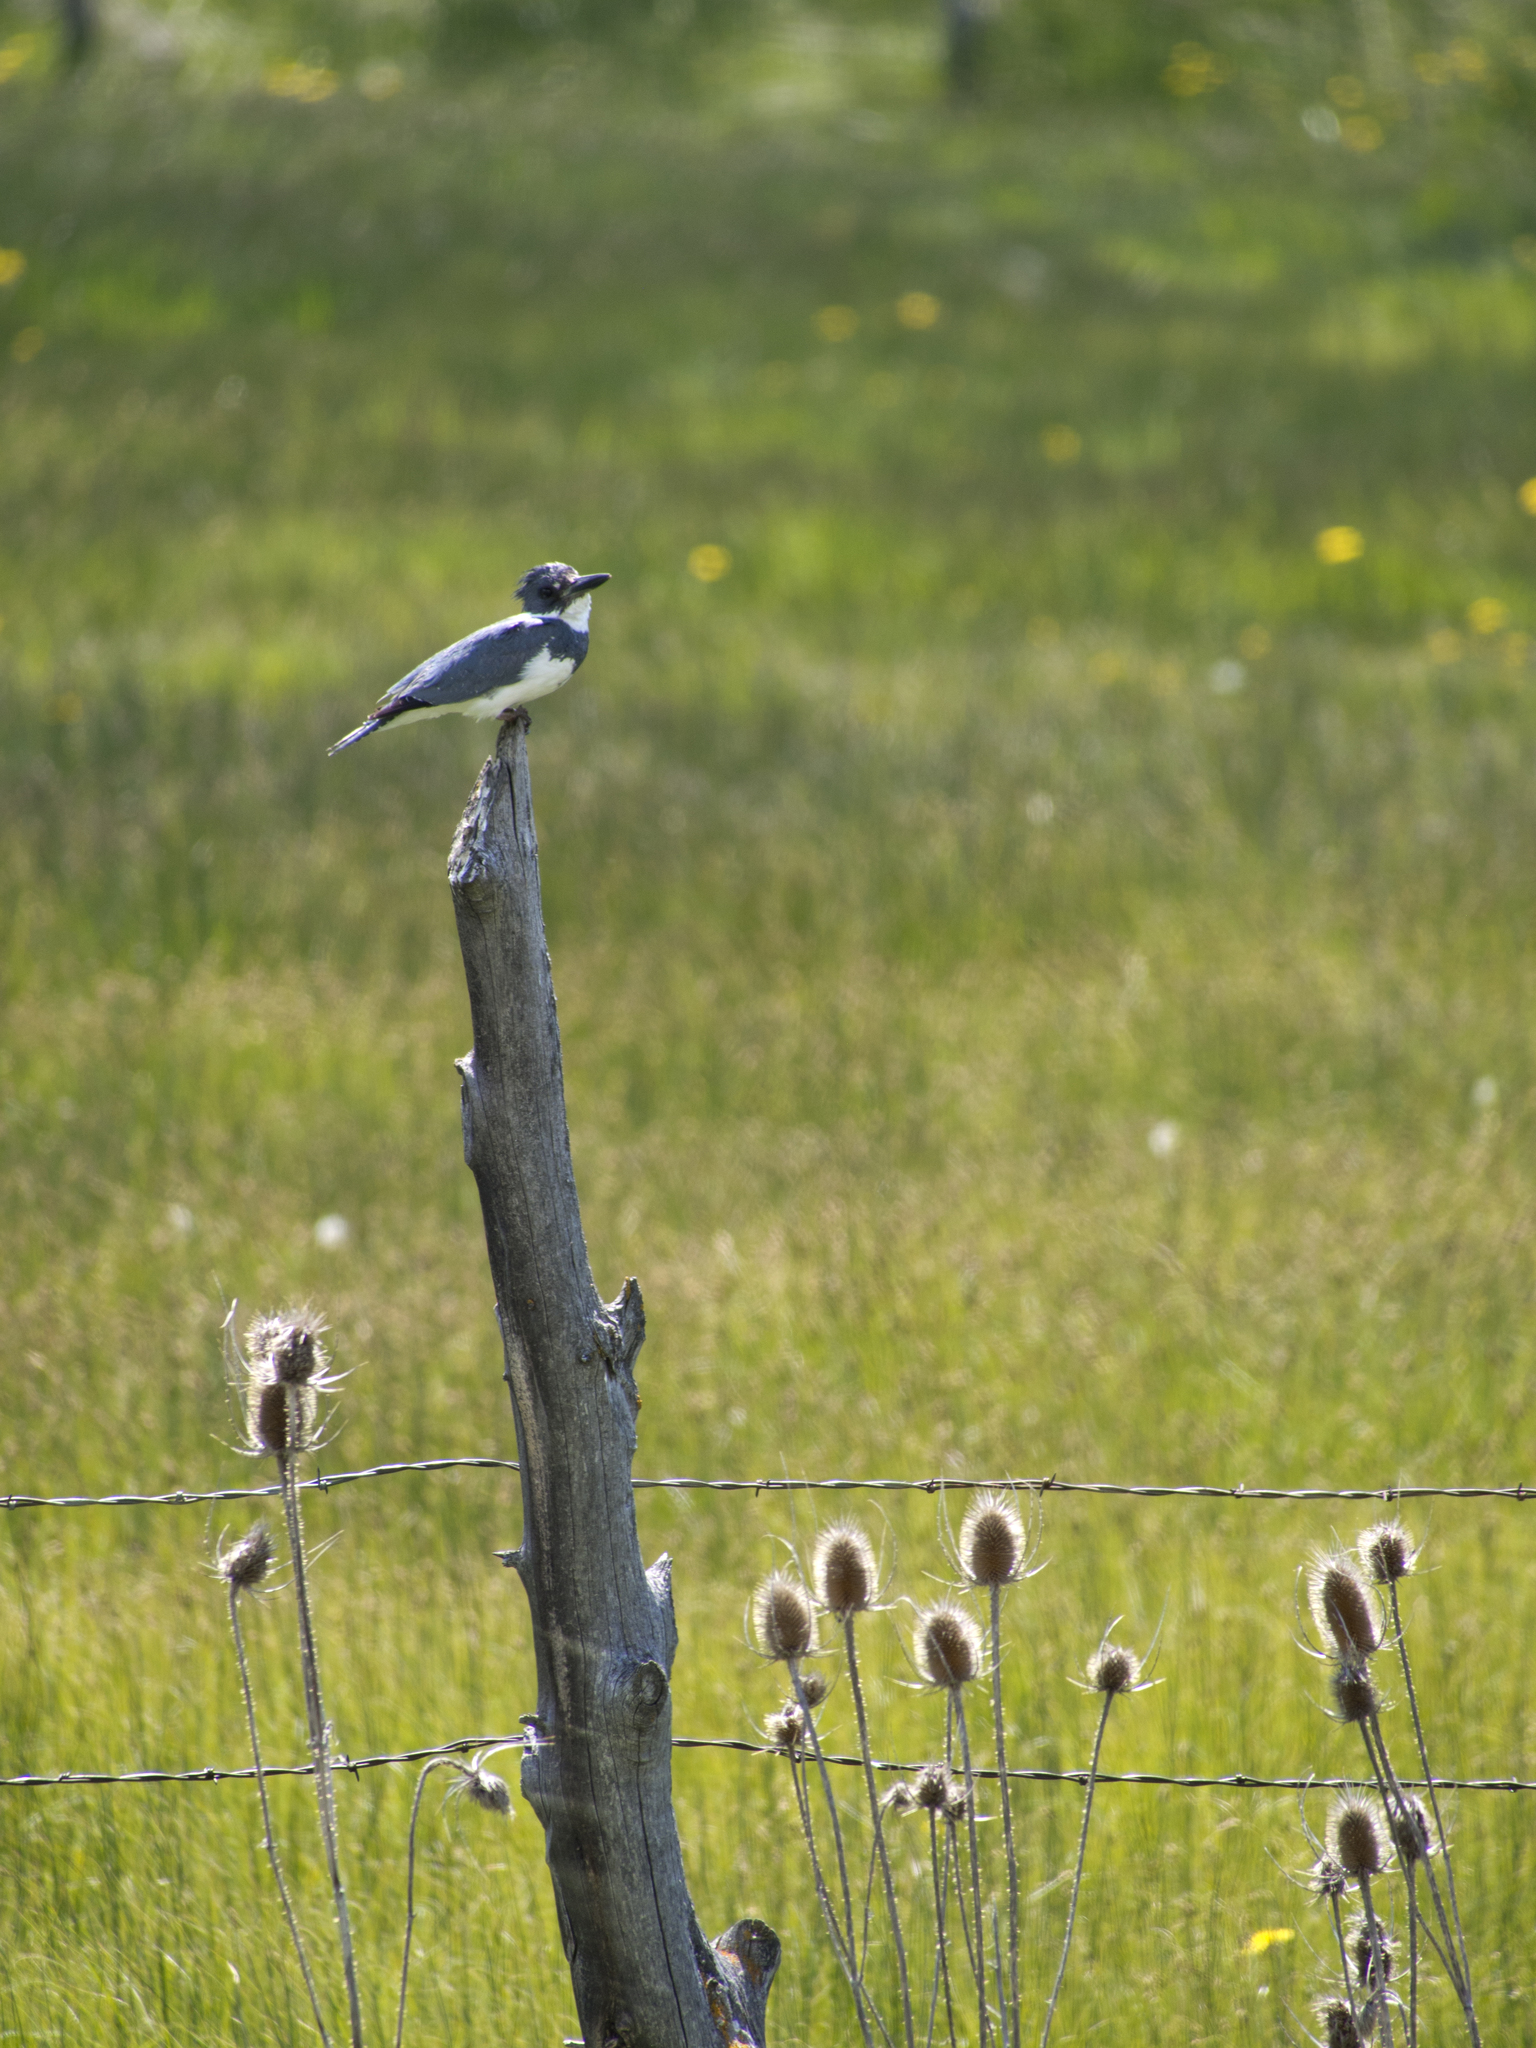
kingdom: Animalia
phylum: Chordata
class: Aves
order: Coraciiformes
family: Alcedinidae
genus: Megaceryle
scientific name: Megaceryle alcyon
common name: Belted kingfisher
